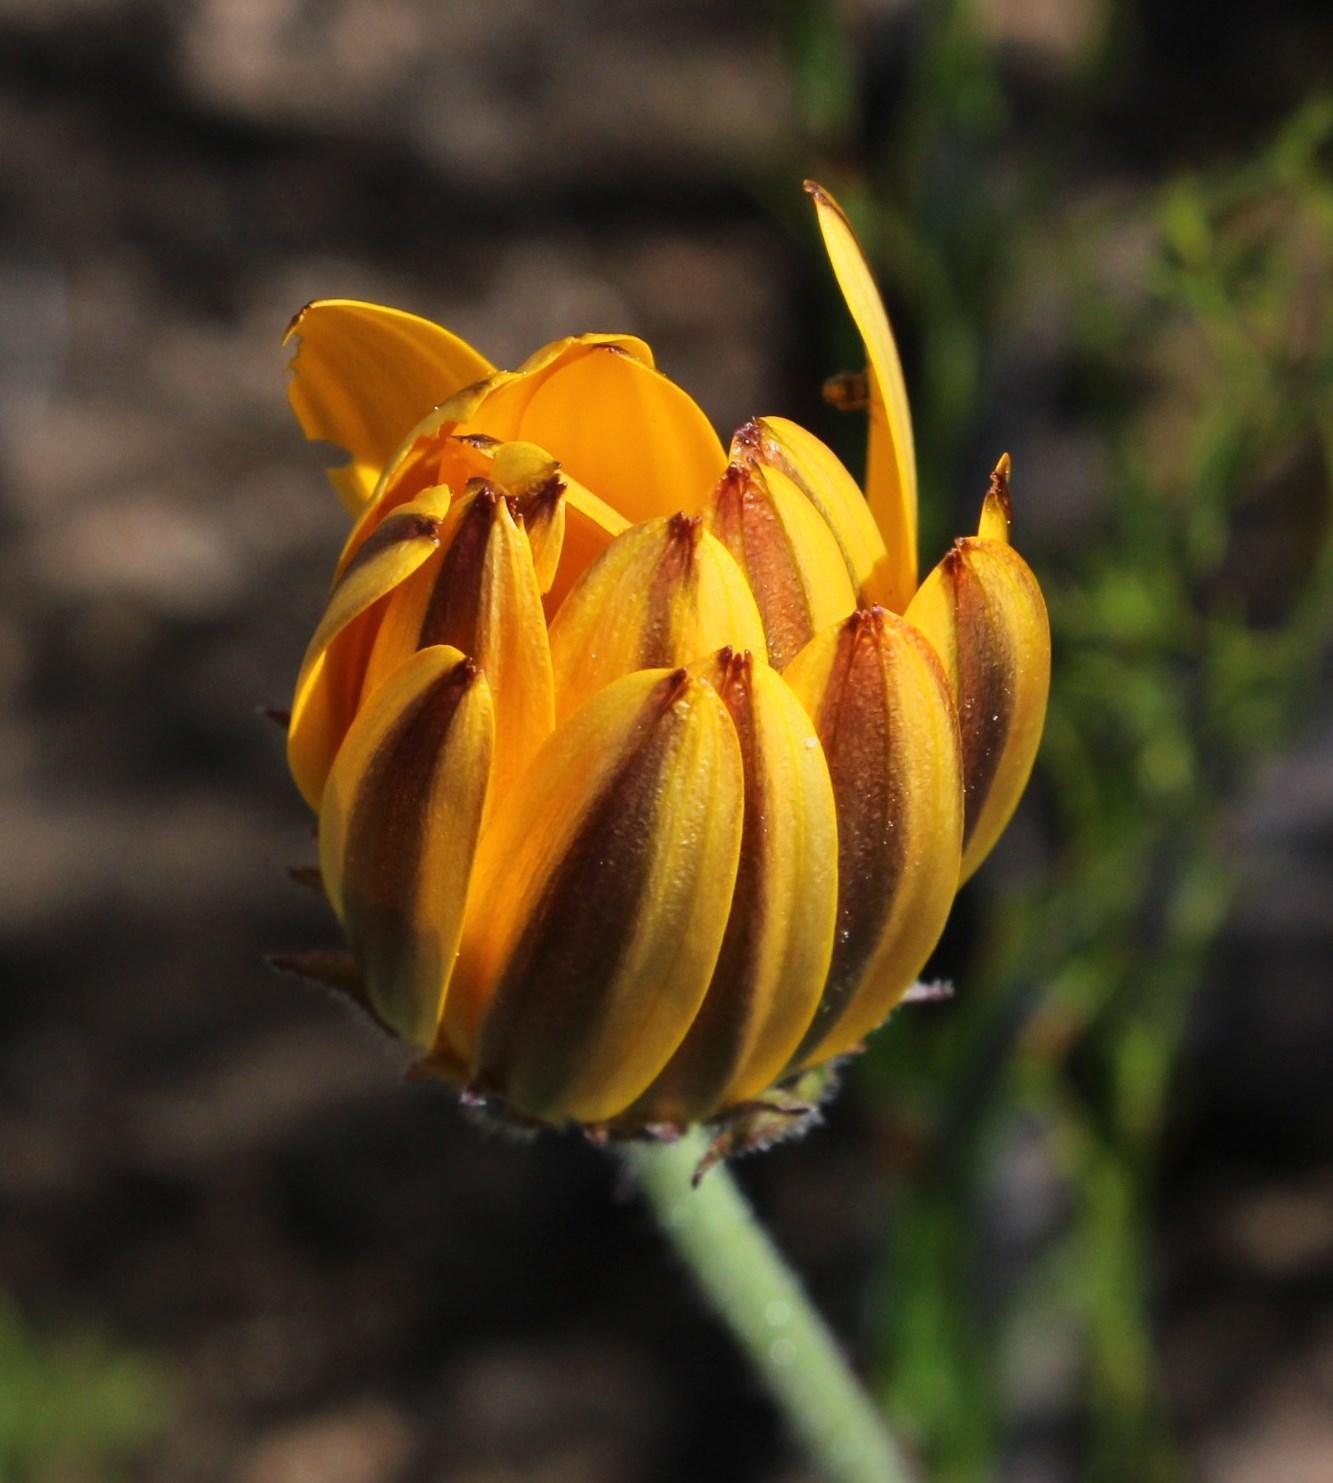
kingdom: Plantae
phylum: Tracheophyta
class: Magnoliopsida
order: Asterales
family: Asteraceae
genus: Dimorphotheca
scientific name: Dimorphotheca nudicaulis
